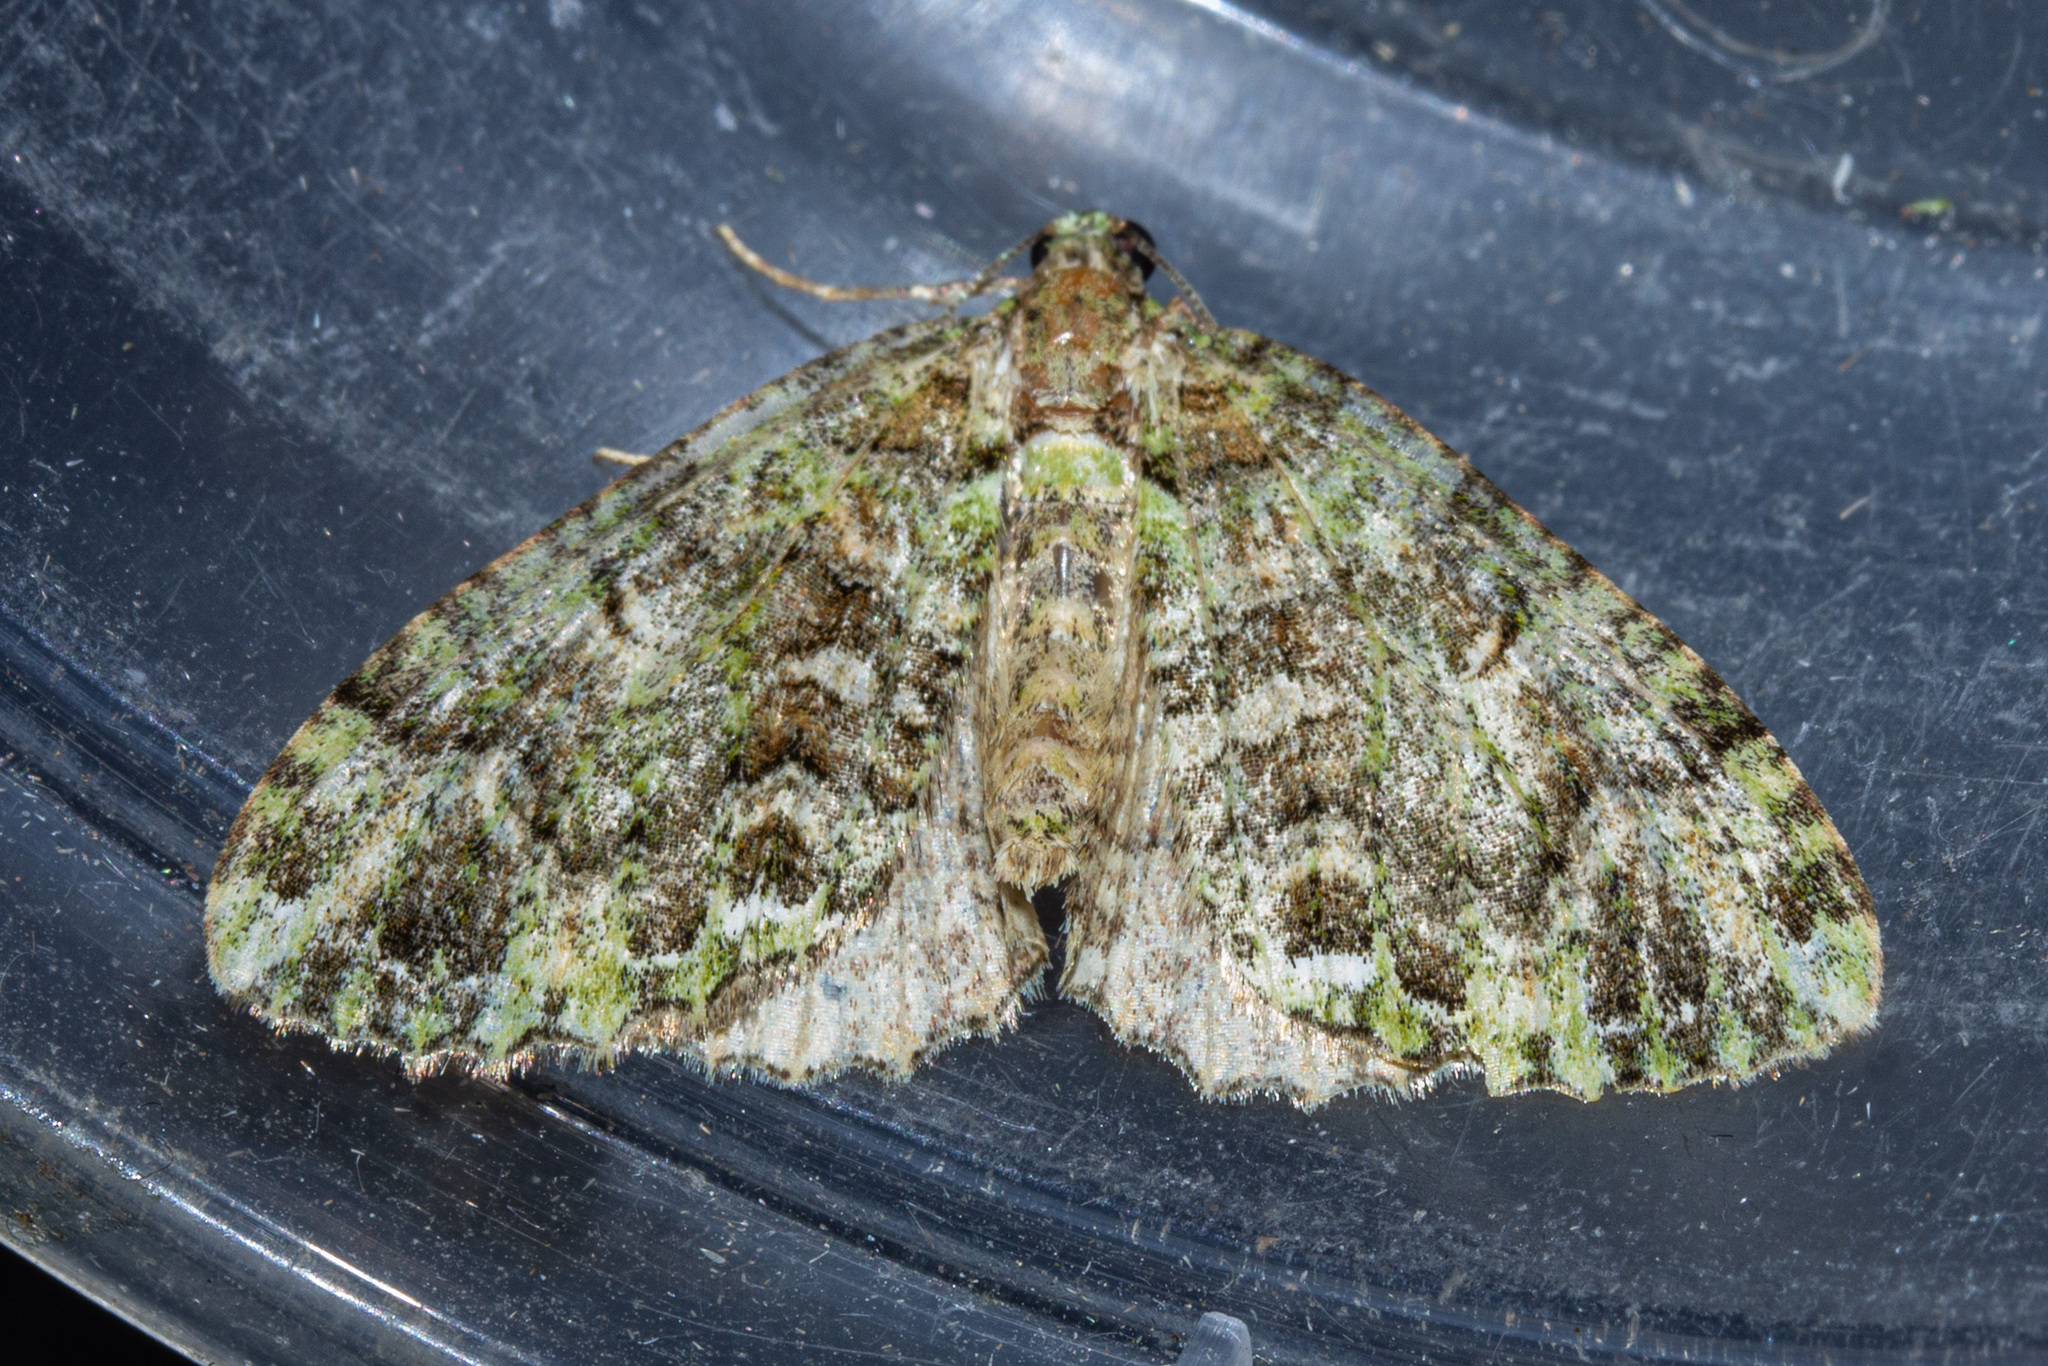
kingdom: Animalia
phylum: Arthropoda
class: Insecta
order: Lepidoptera
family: Geometridae
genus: Austrocidaria
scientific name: Austrocidaria similata
